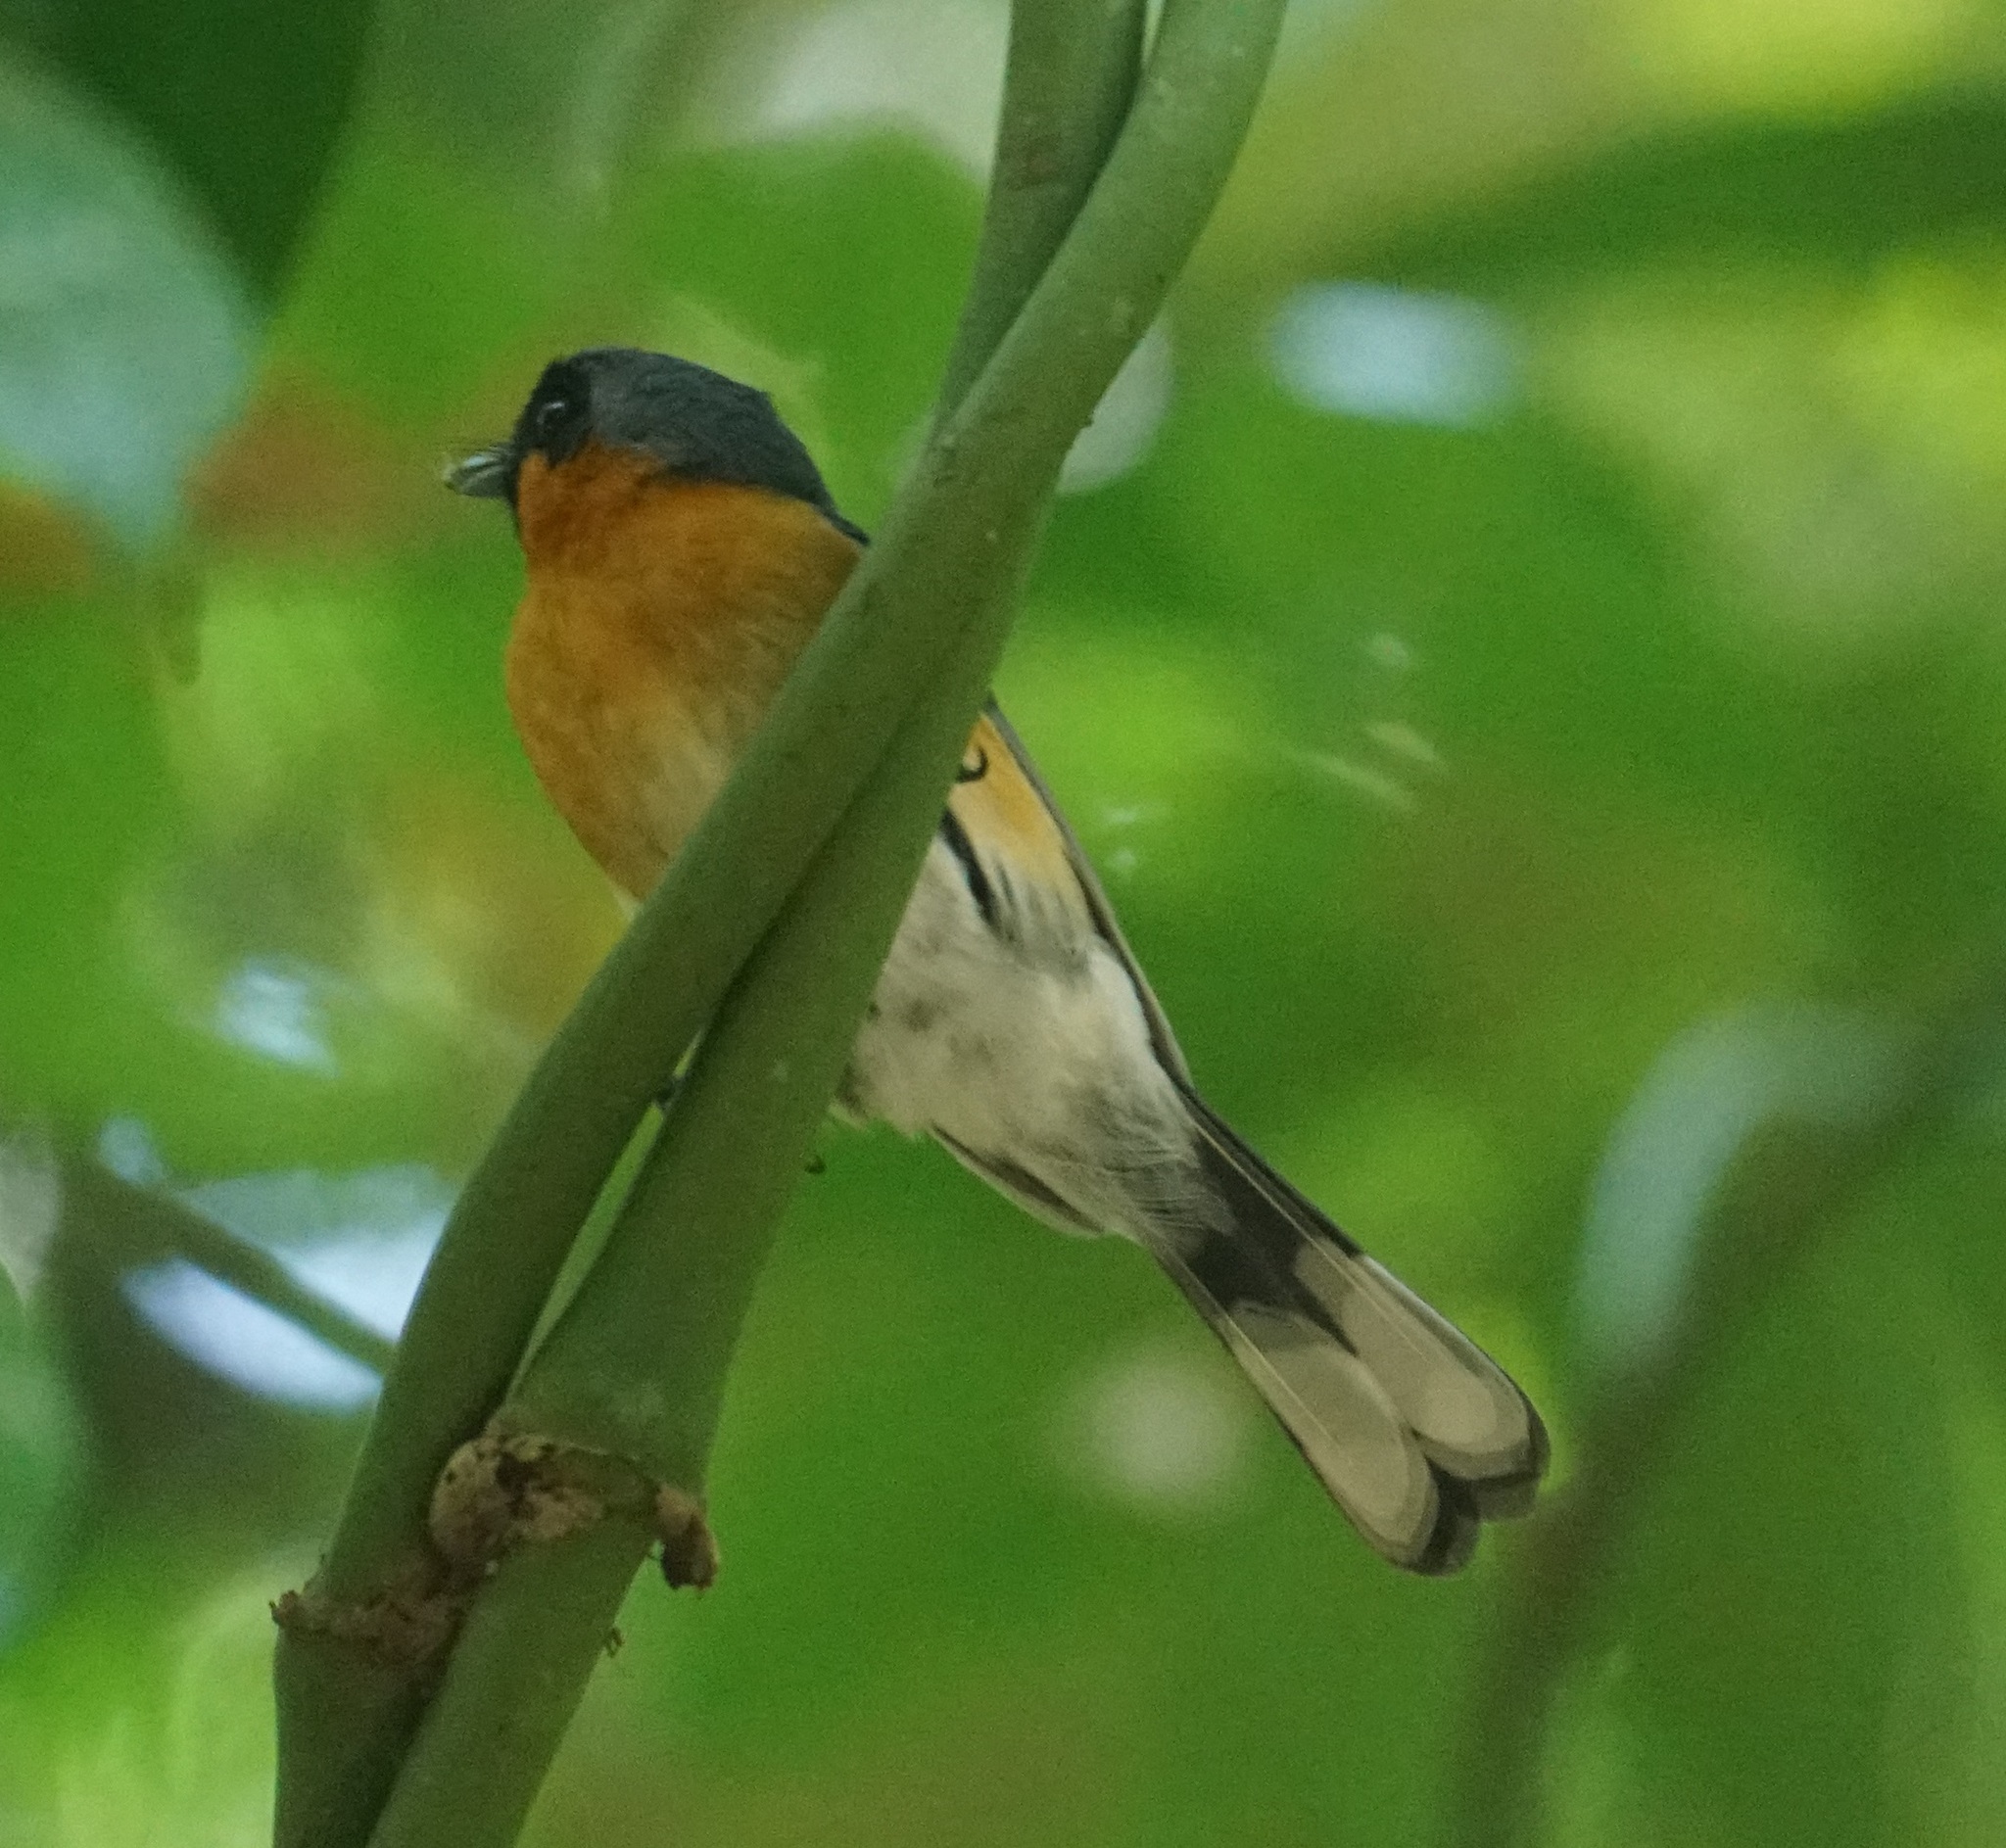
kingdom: Animalia
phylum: Chordata
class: Aves
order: Passeriformes
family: Monarchidae
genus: Symposiachrus
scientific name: Symposiachrus trivirgatus
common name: Spectacled monarch
